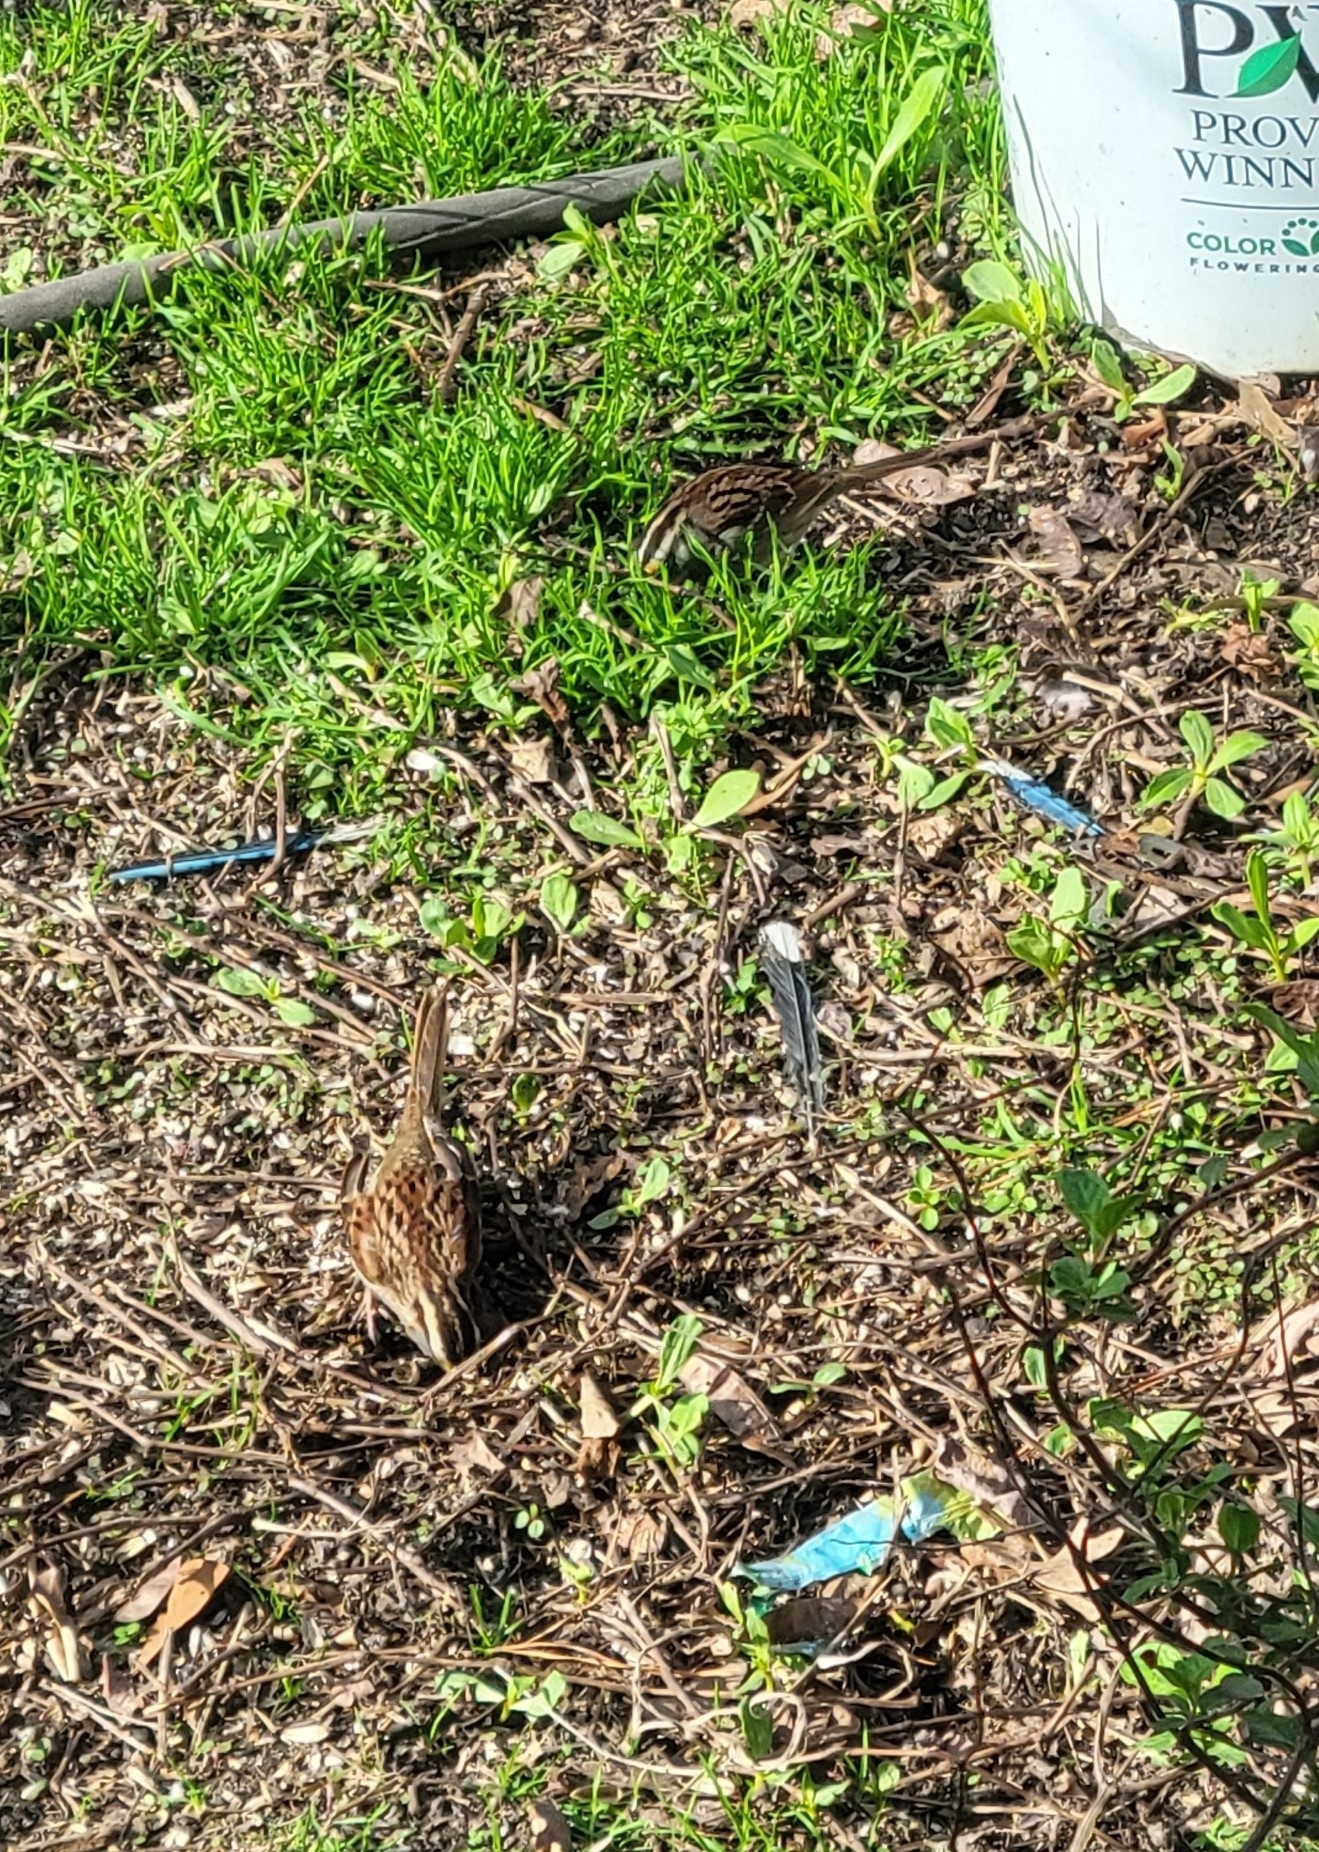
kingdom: Animalia
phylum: Chordata
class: Aves
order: Passeriformes
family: Passerellidae
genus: Zonotrichia
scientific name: Zonotrichia albicollis
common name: White-throated sparrow
